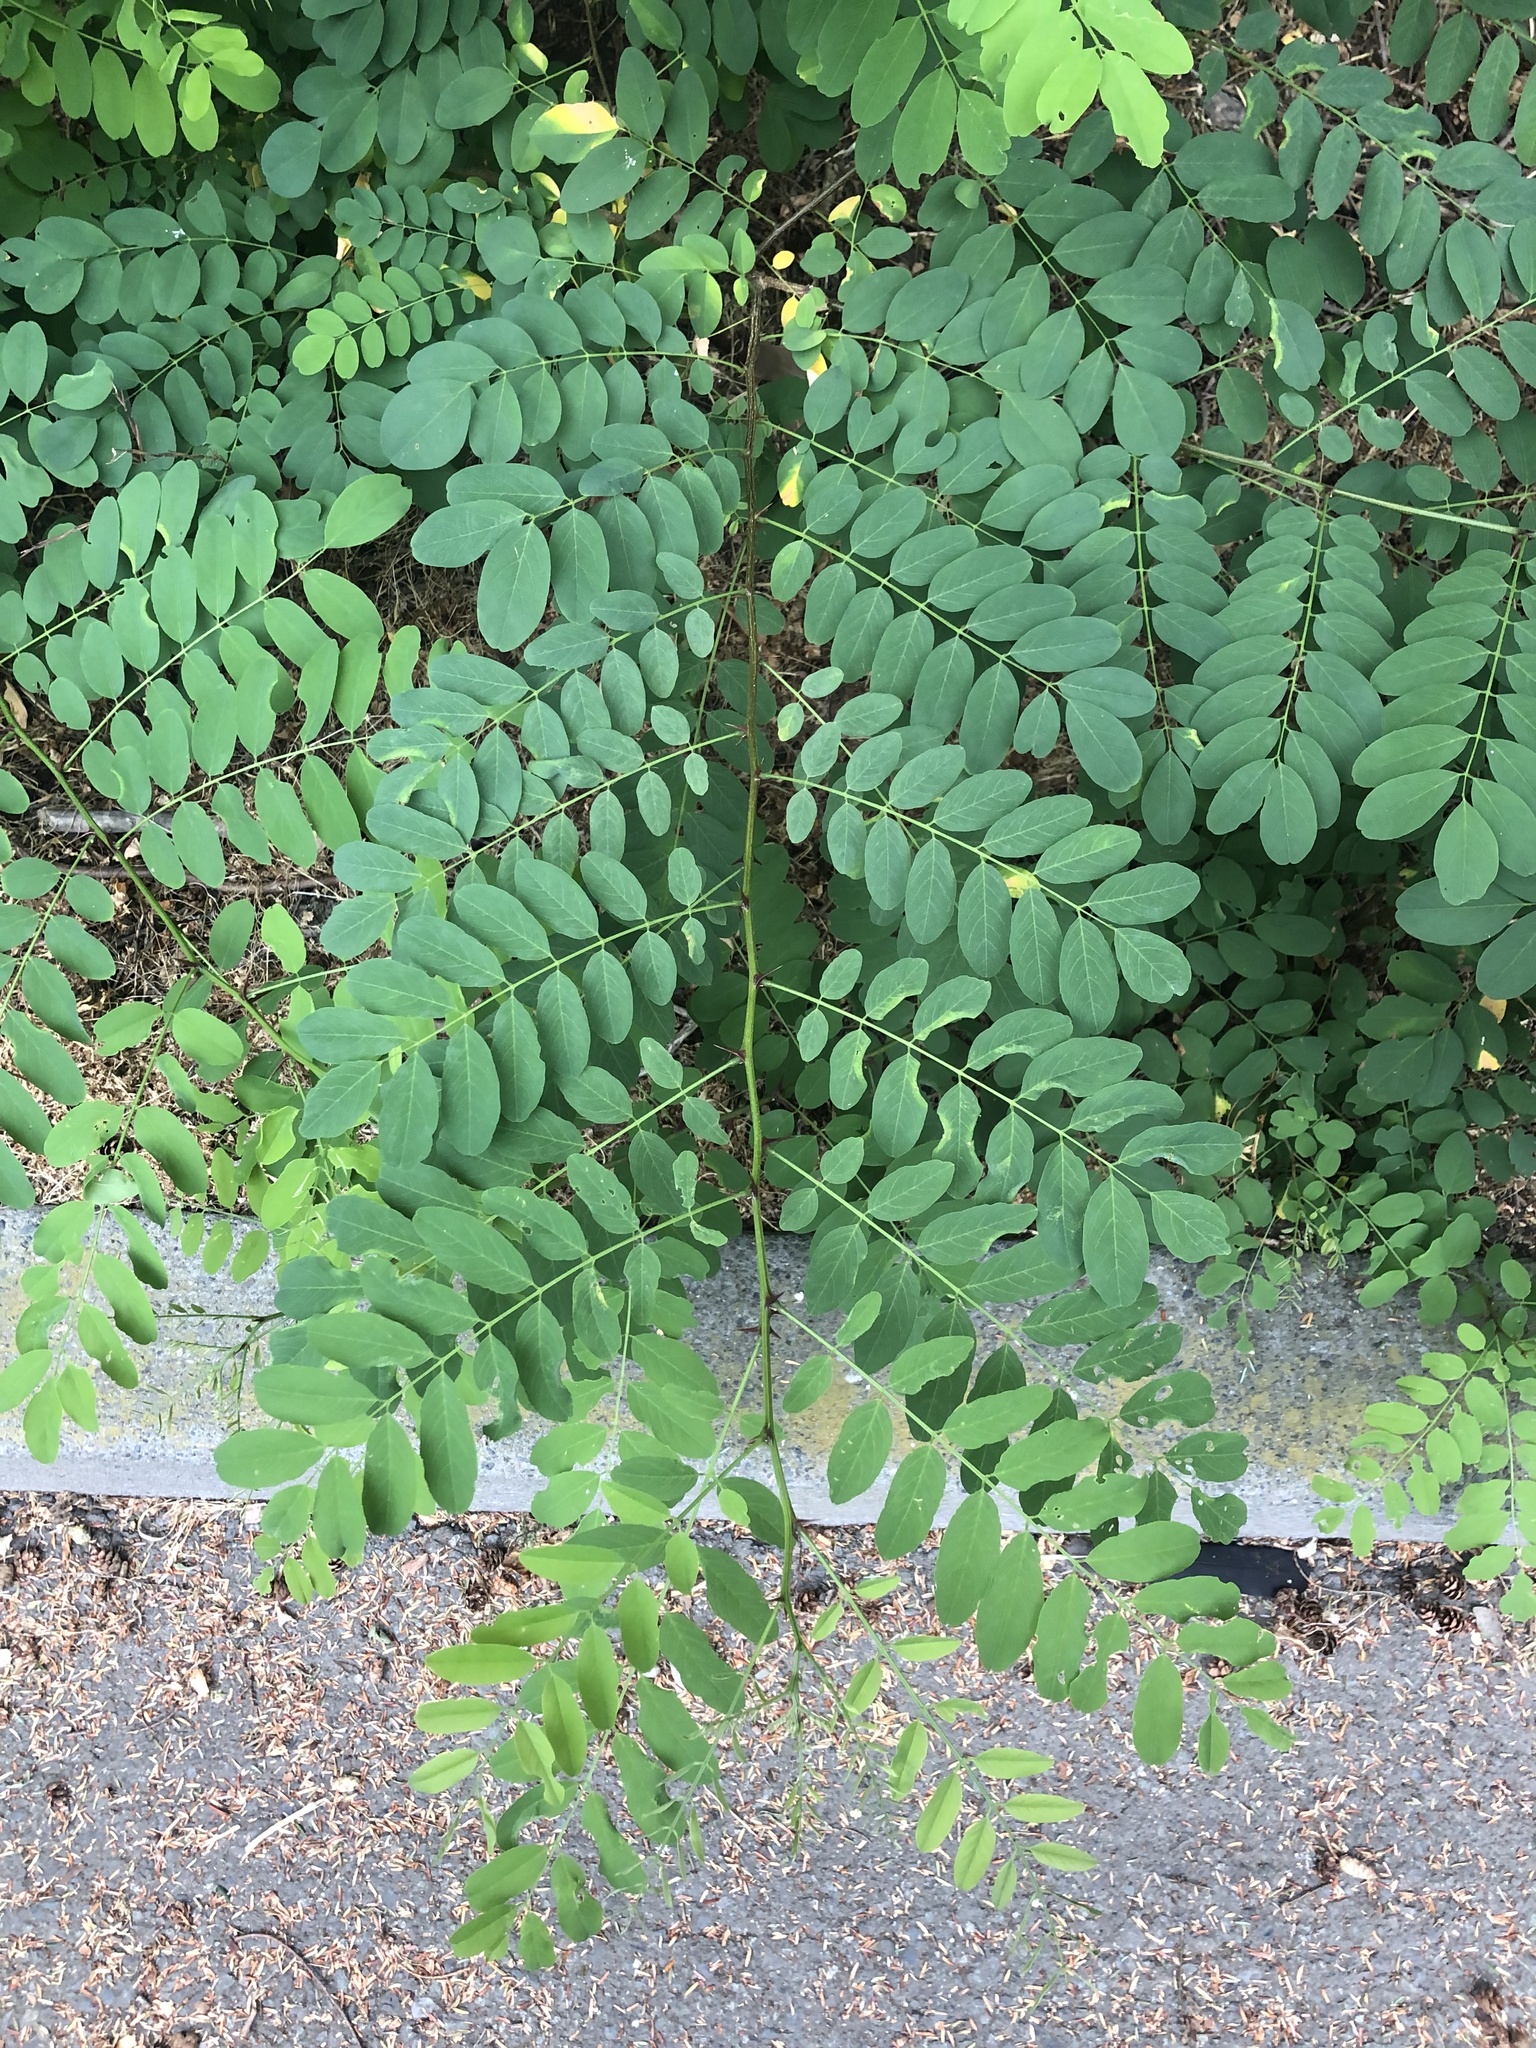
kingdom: Plantae
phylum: Tracheophyta
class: Magnoliopsida
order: Fabales
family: Fabaceae
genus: Robinia
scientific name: Robinia pseudoacacia
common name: Black locust
